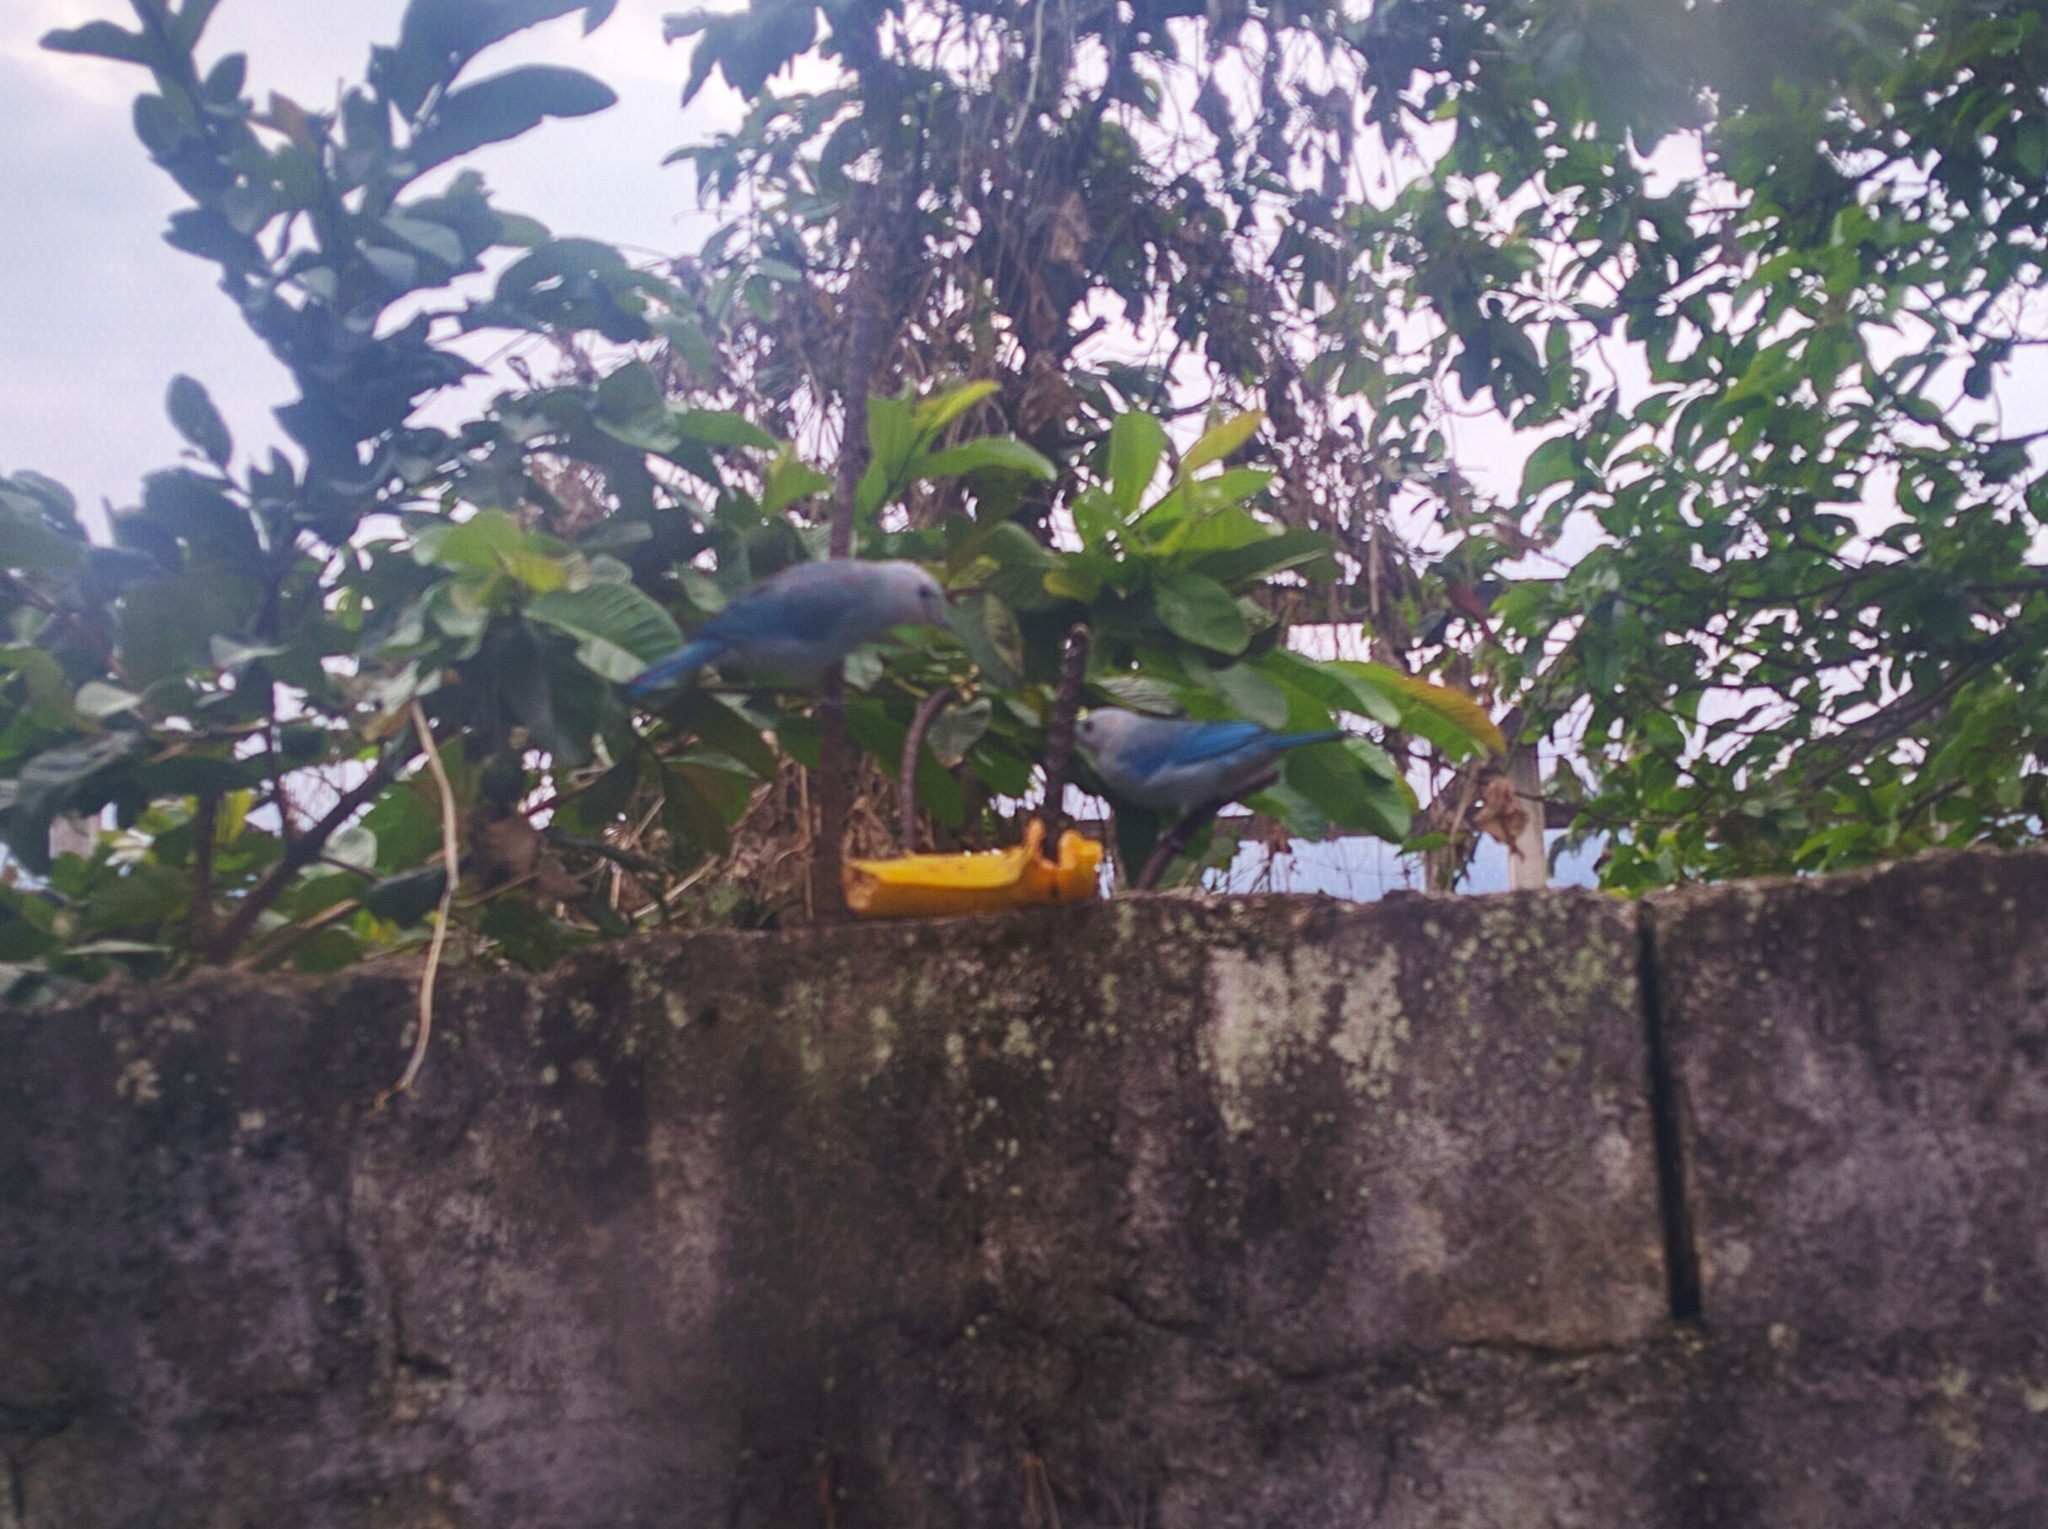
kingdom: Animalia
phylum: Chordata
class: Aves
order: Passeriformes
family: Thraupidae
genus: Thraupis
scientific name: Thraupis episcopus
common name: Blue-grey tanager
